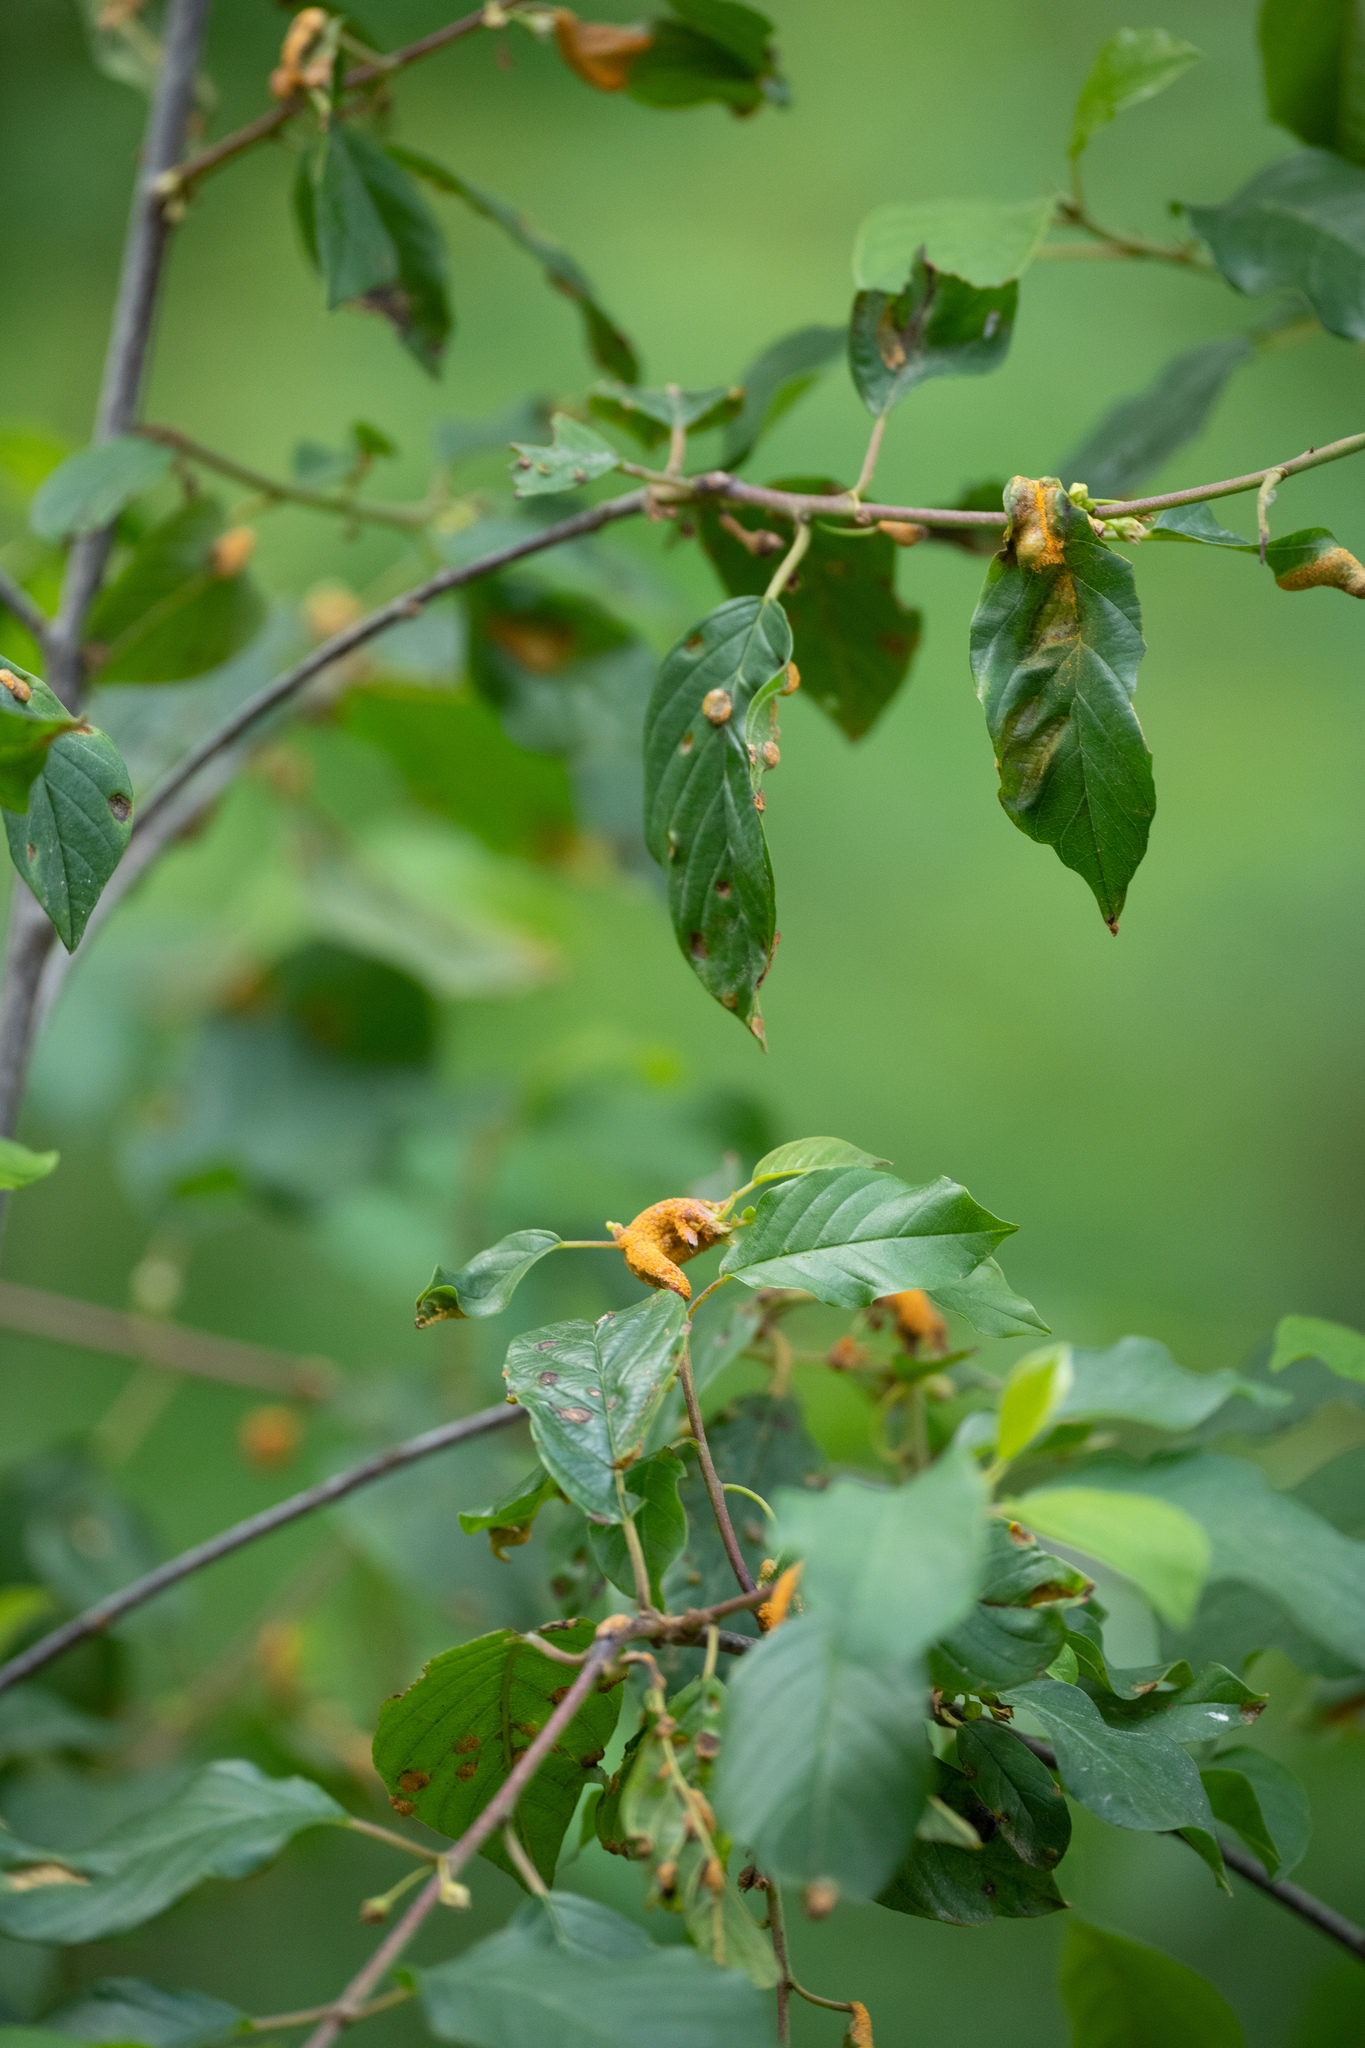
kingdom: Fungi
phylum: Basidiomycota
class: Pucciniomycetes
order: Pucciniales
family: Pucciniaceae
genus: Puccinia
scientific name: Puccinia coronata
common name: Crown rust
